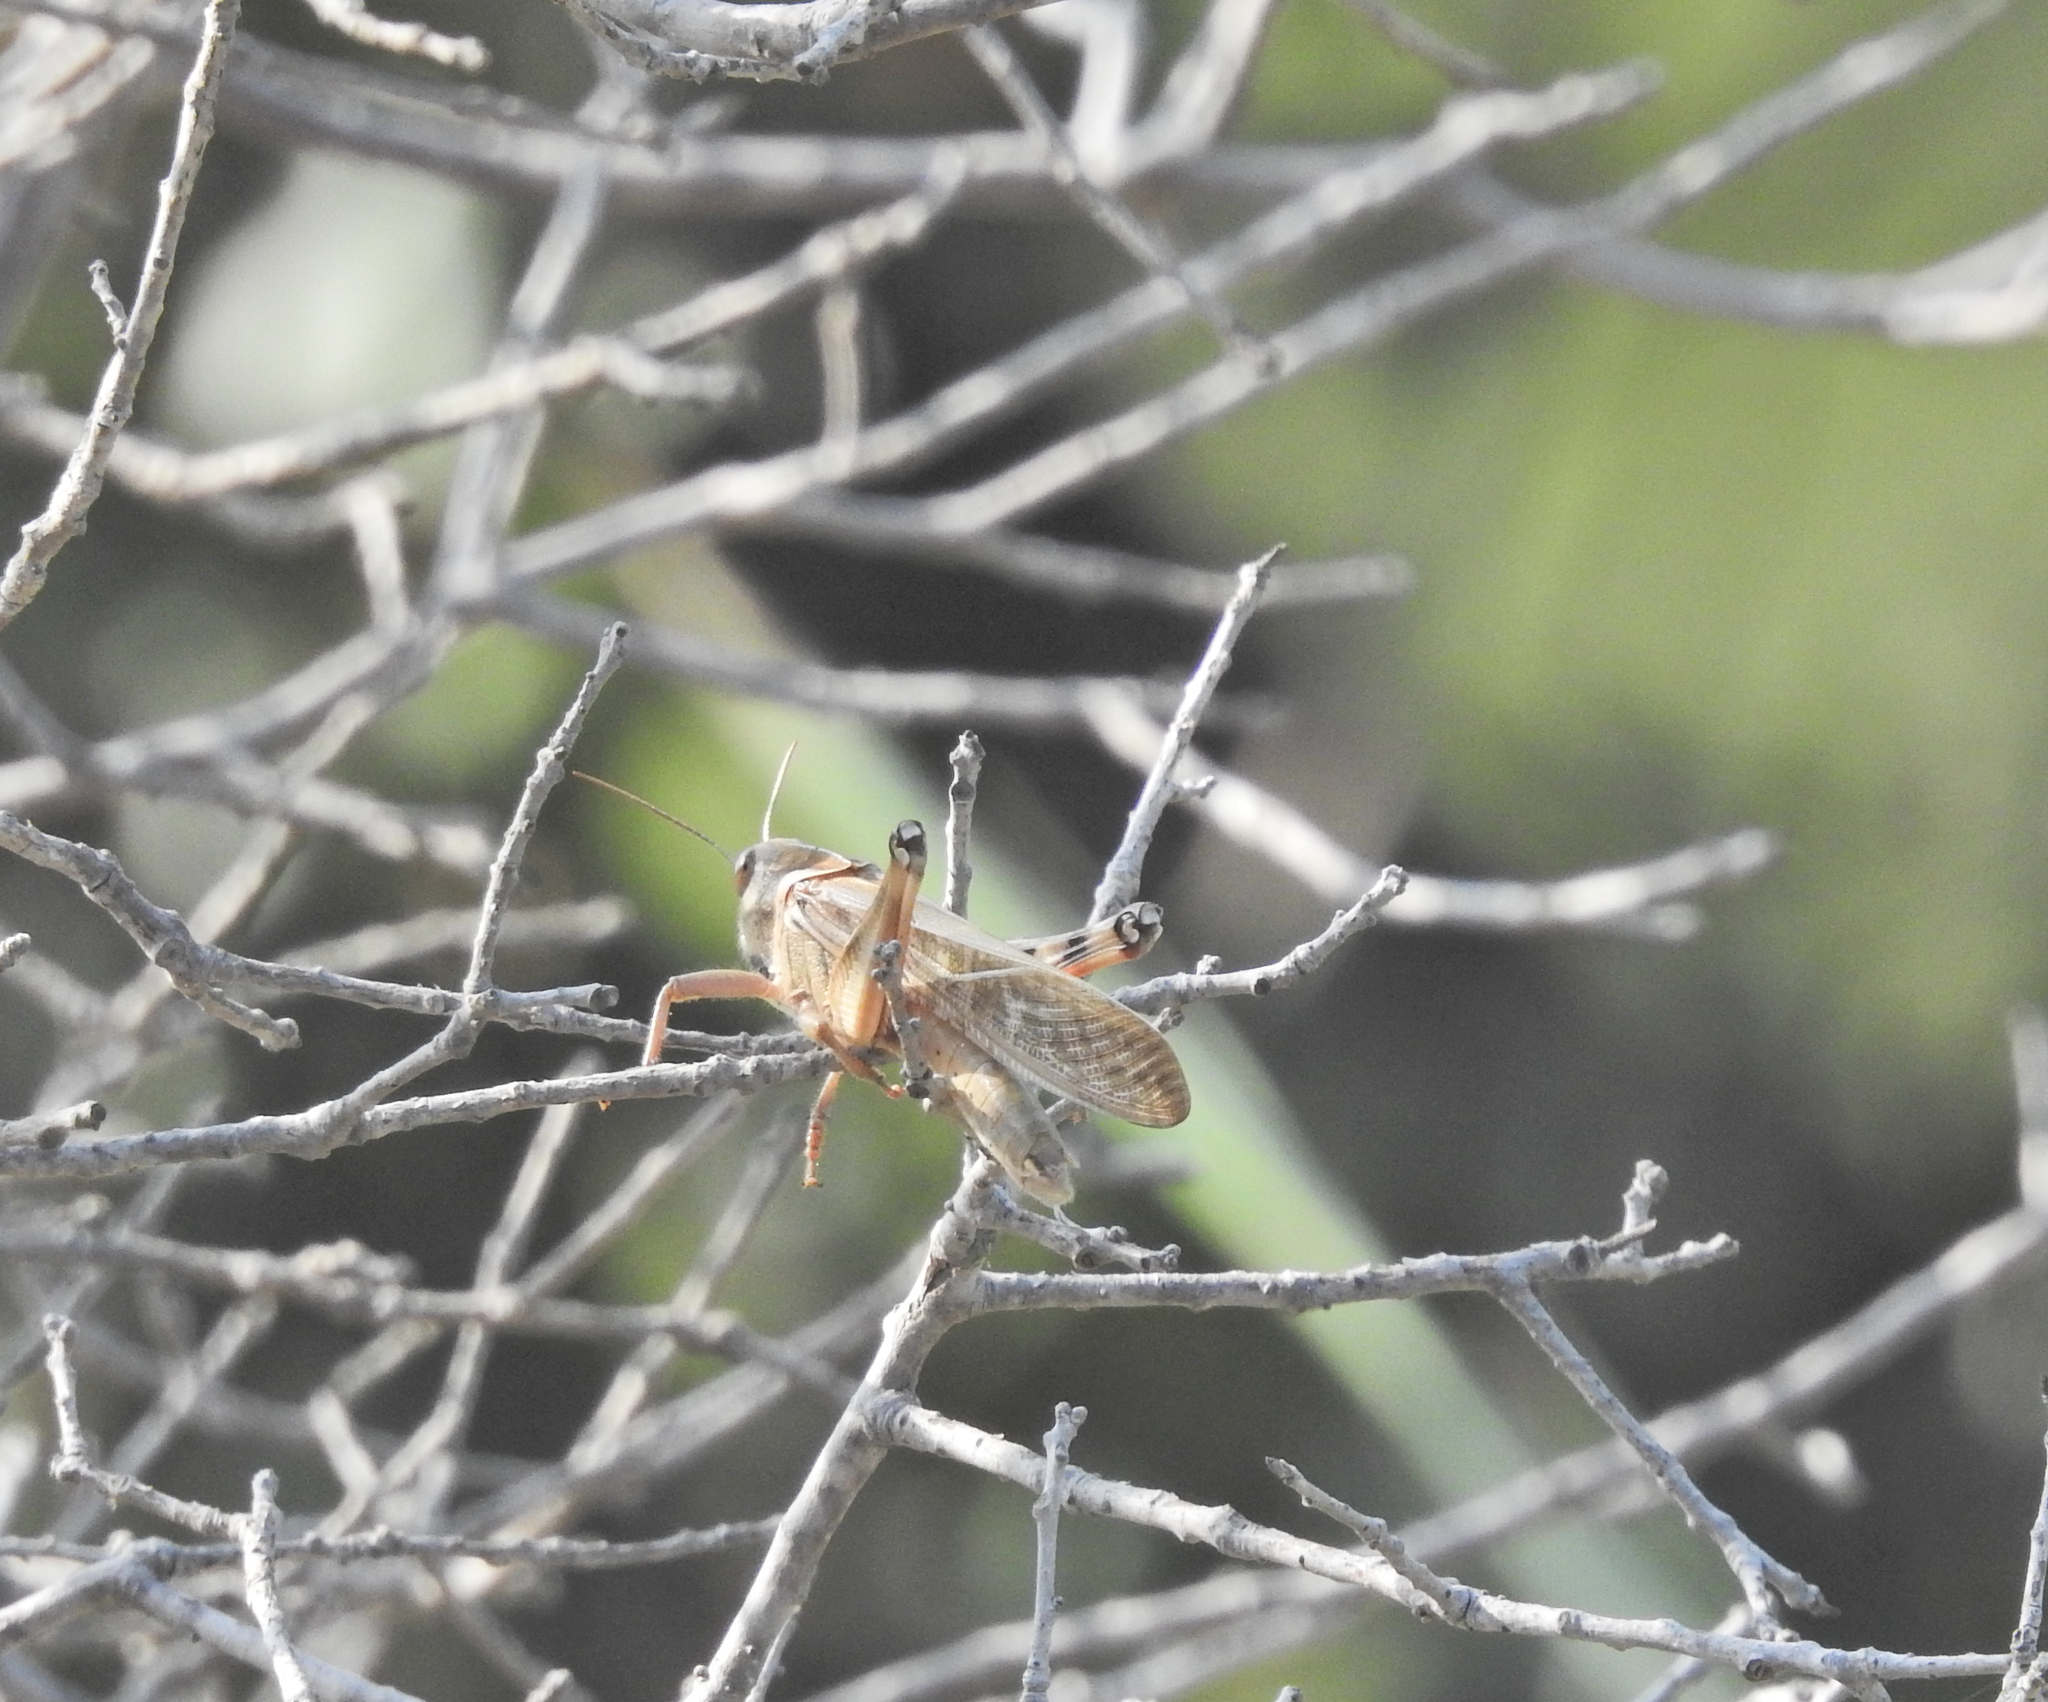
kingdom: Animalia
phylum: Arthropoda
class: Insecta
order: Orthoptera
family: Acrididae
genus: Locusta
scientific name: Locusta migratoria
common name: Migratory locust
